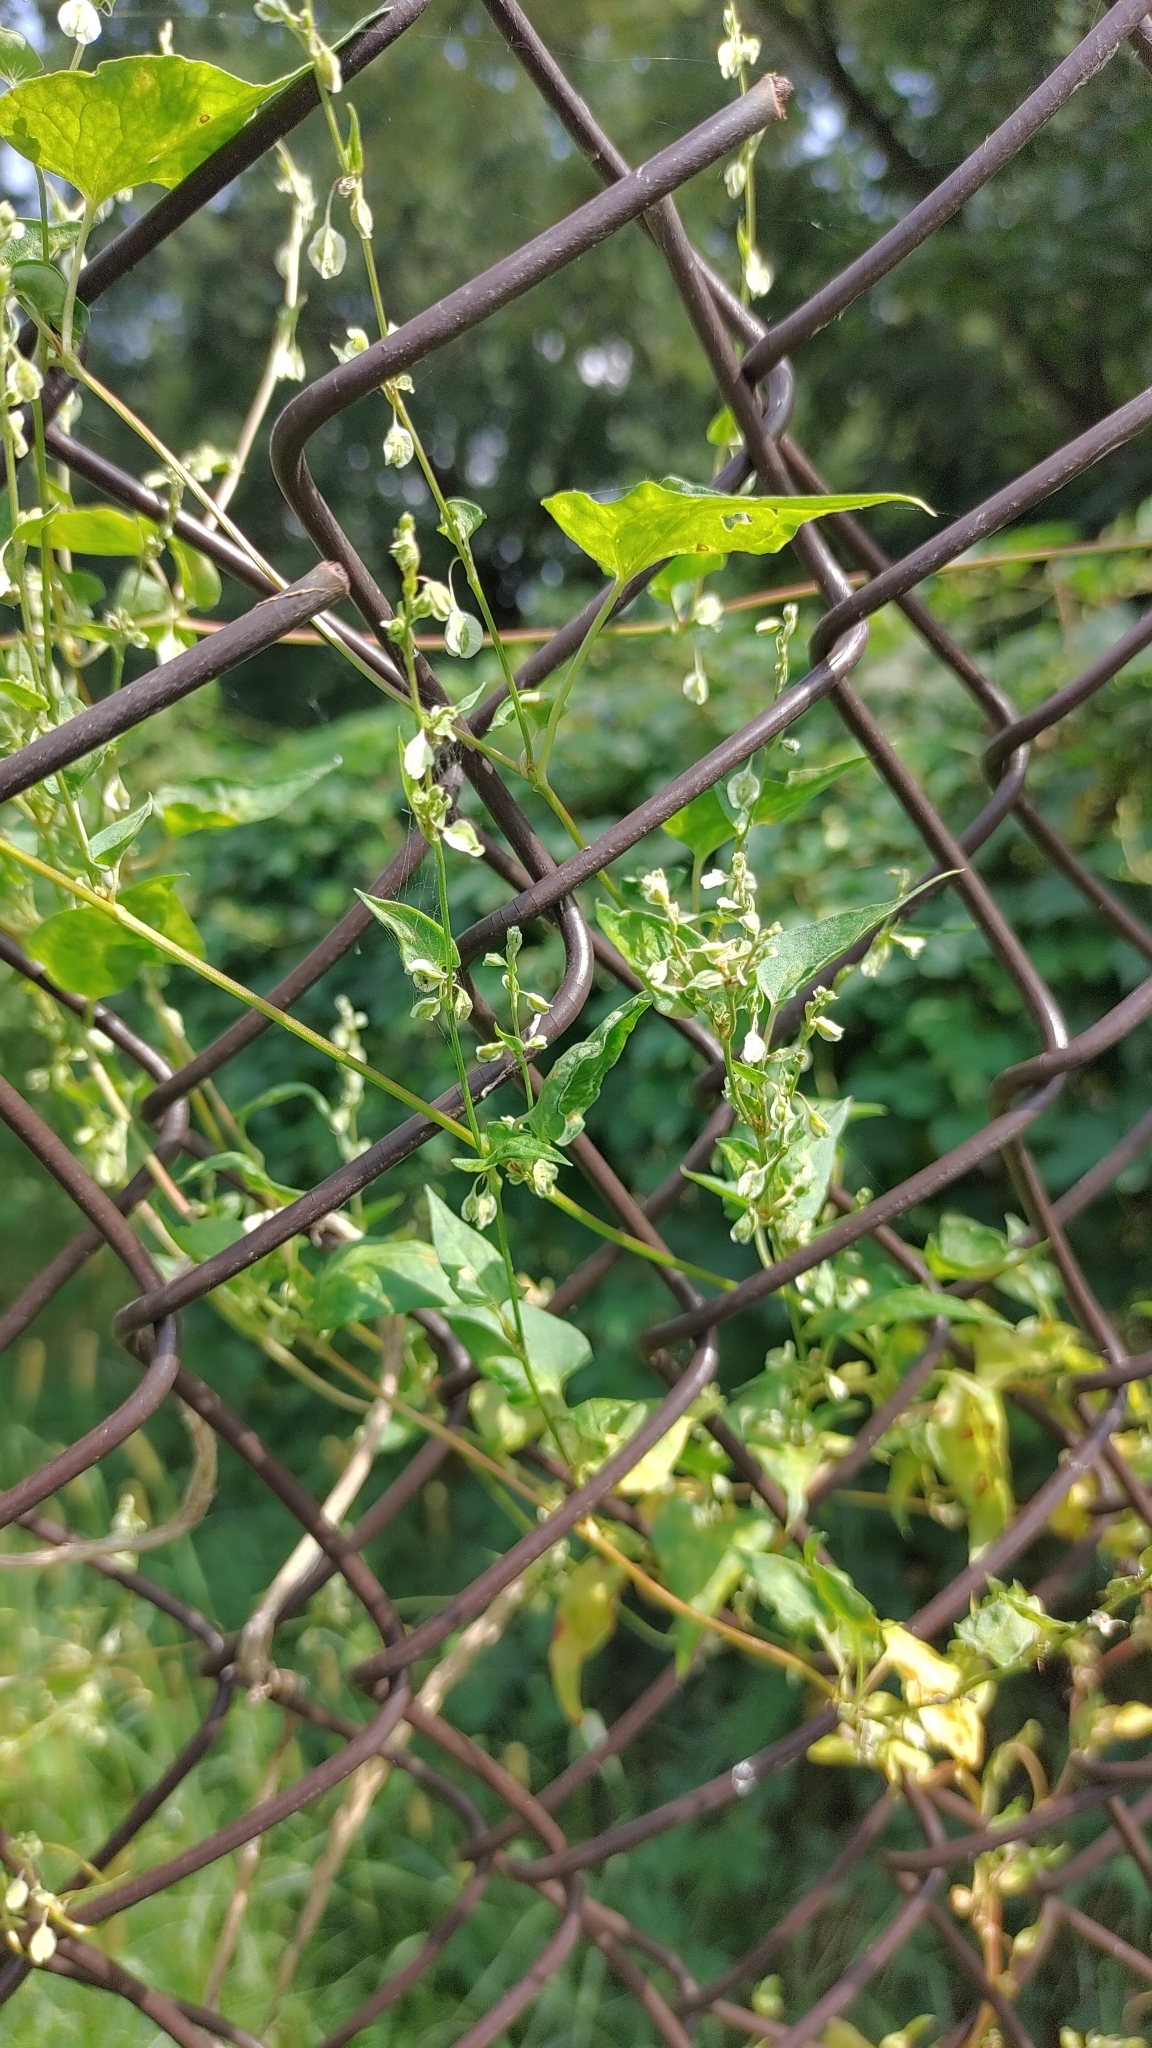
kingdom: Plantae
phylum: Tracheophyta
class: Magnoliopsida
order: Caryophyllales
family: Polygonaceae
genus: Fallopia
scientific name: Fallopia dumetorum
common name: Copse-bindweed
